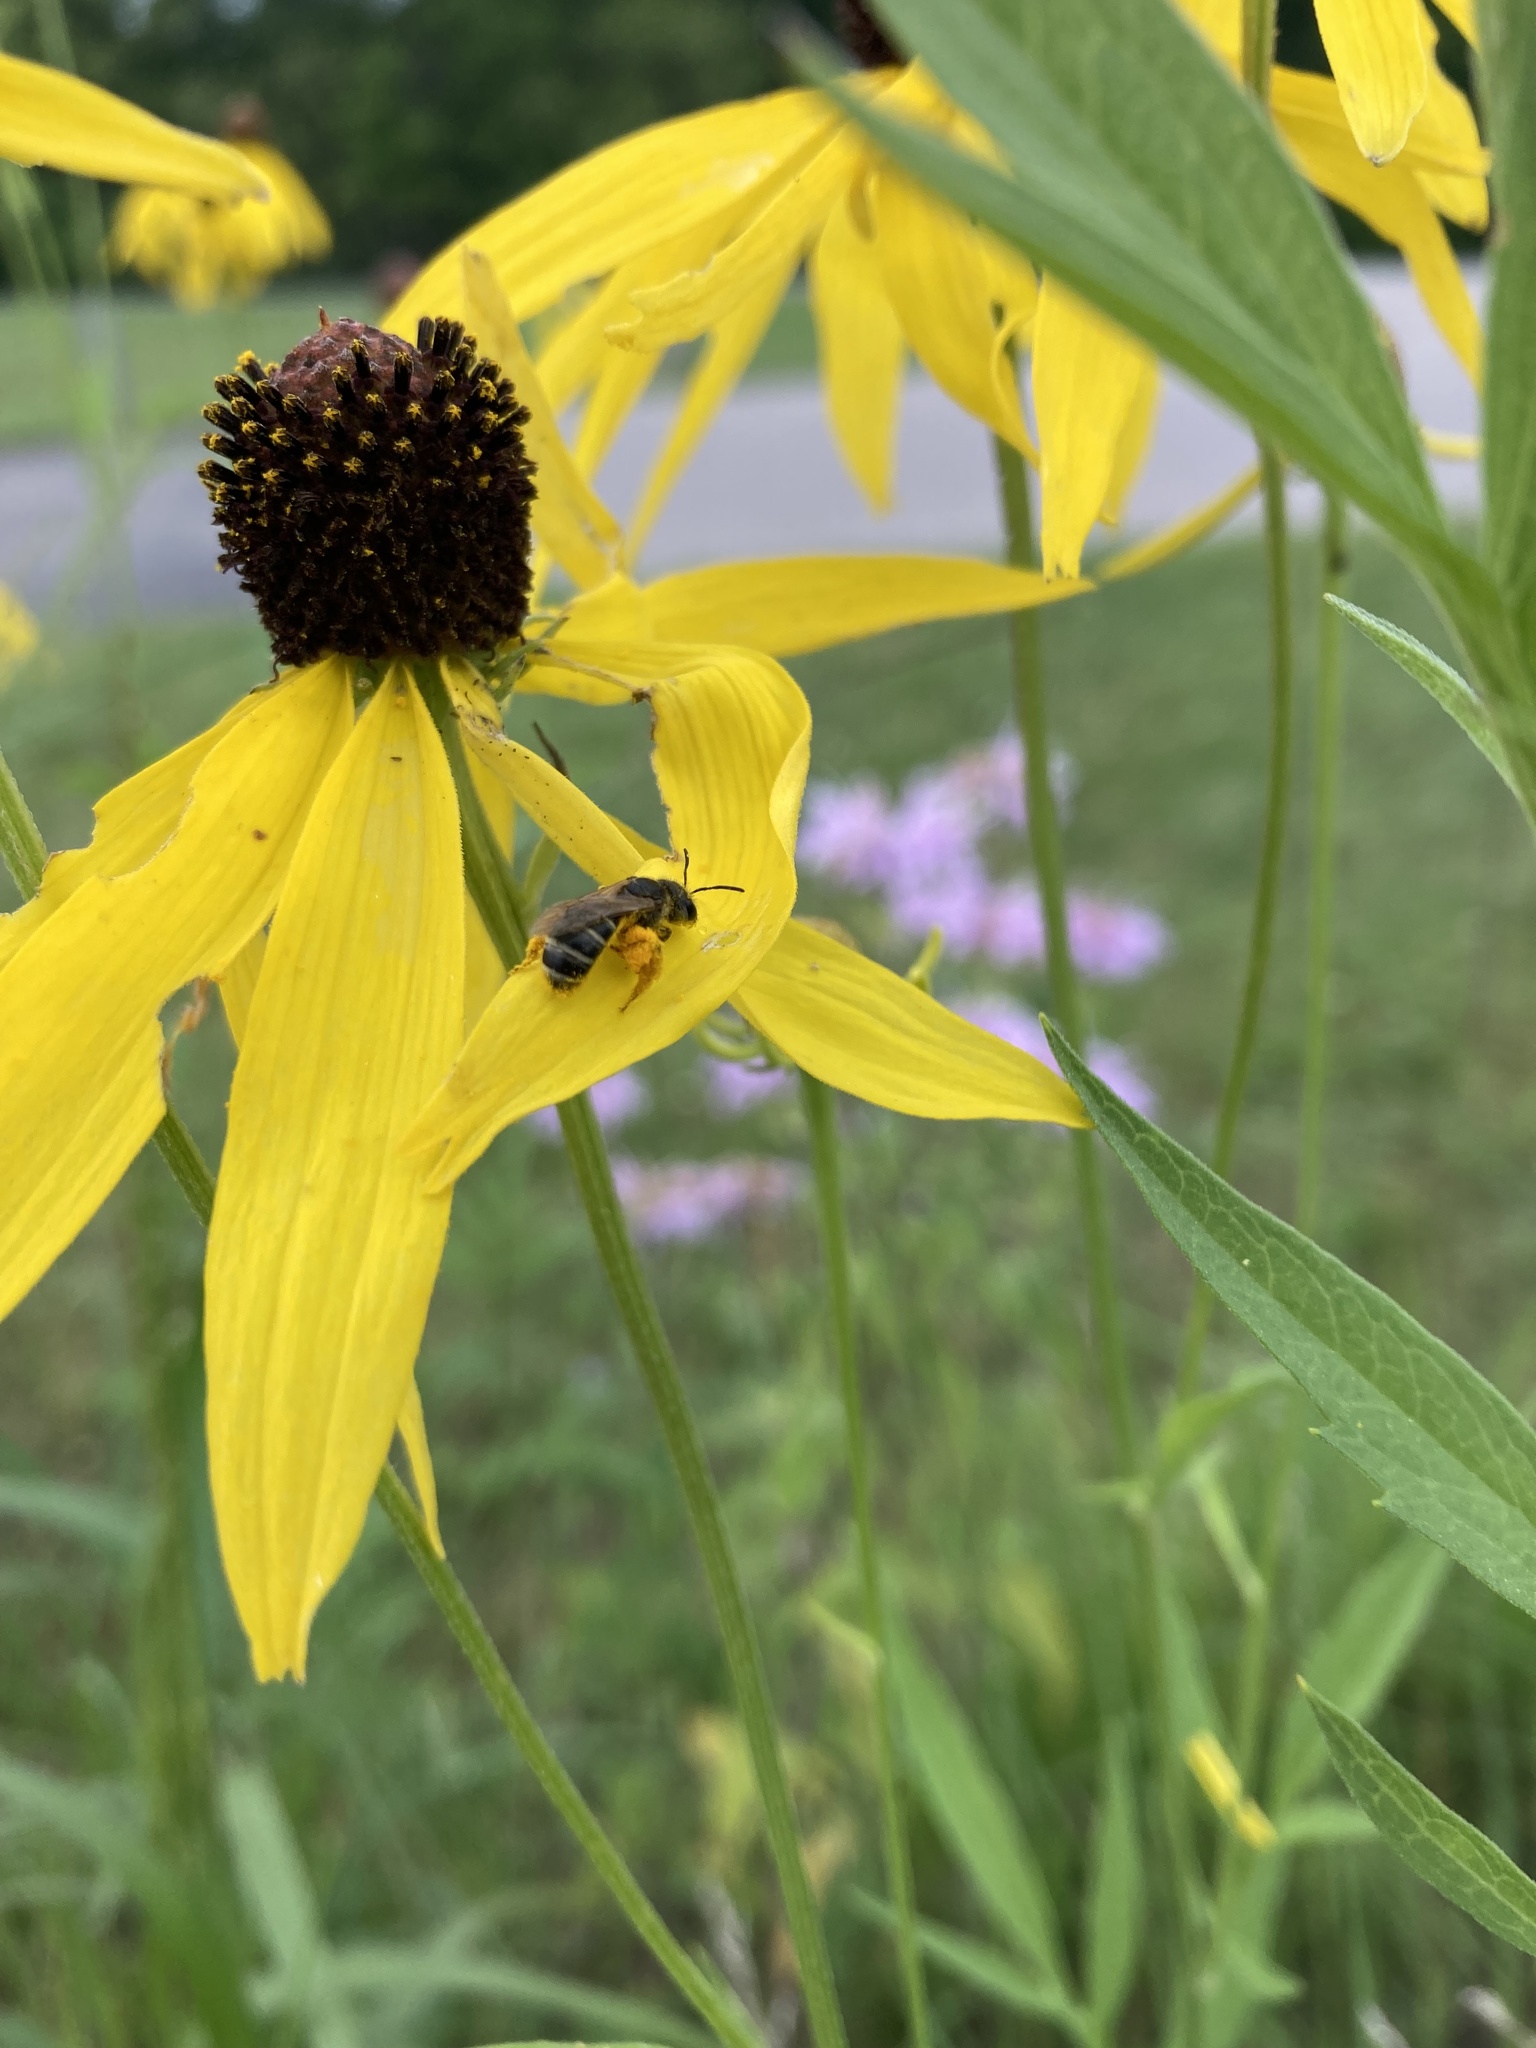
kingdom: Animalia
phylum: Arthropoda
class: Insecta
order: Hymenoptera
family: Halictidae
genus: Halictus
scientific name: Halictus ligatus
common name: Ligated furrow bee
